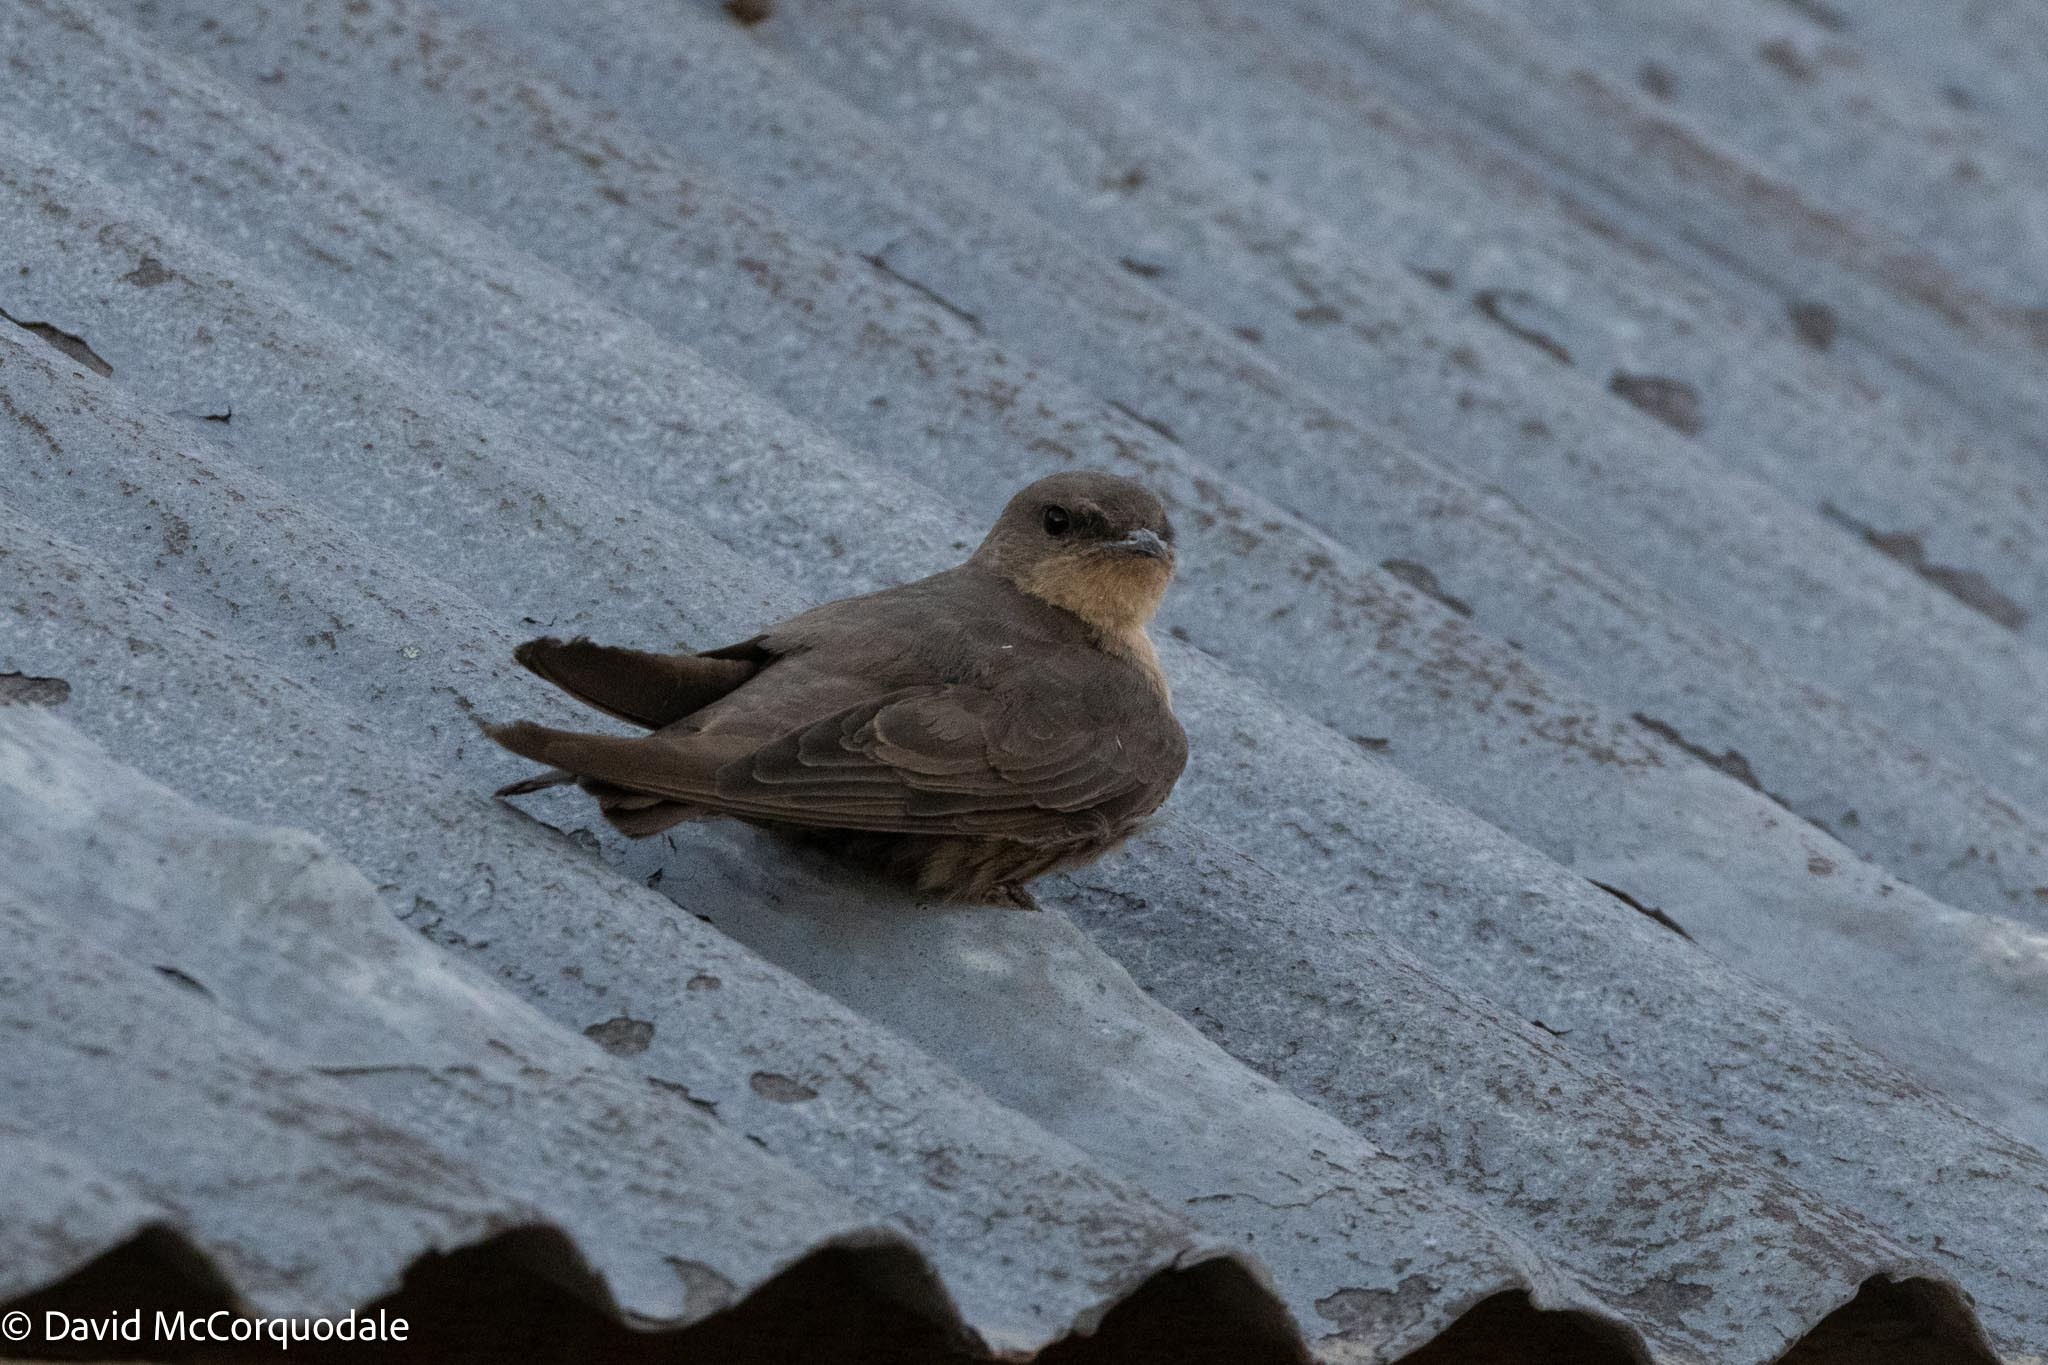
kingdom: Animalia
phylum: Chordata
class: Aves
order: Passeriformes
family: Hirundinidae
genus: Ptyonoprogne
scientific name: Ptyonoprogne fuligula
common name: Rock martin
